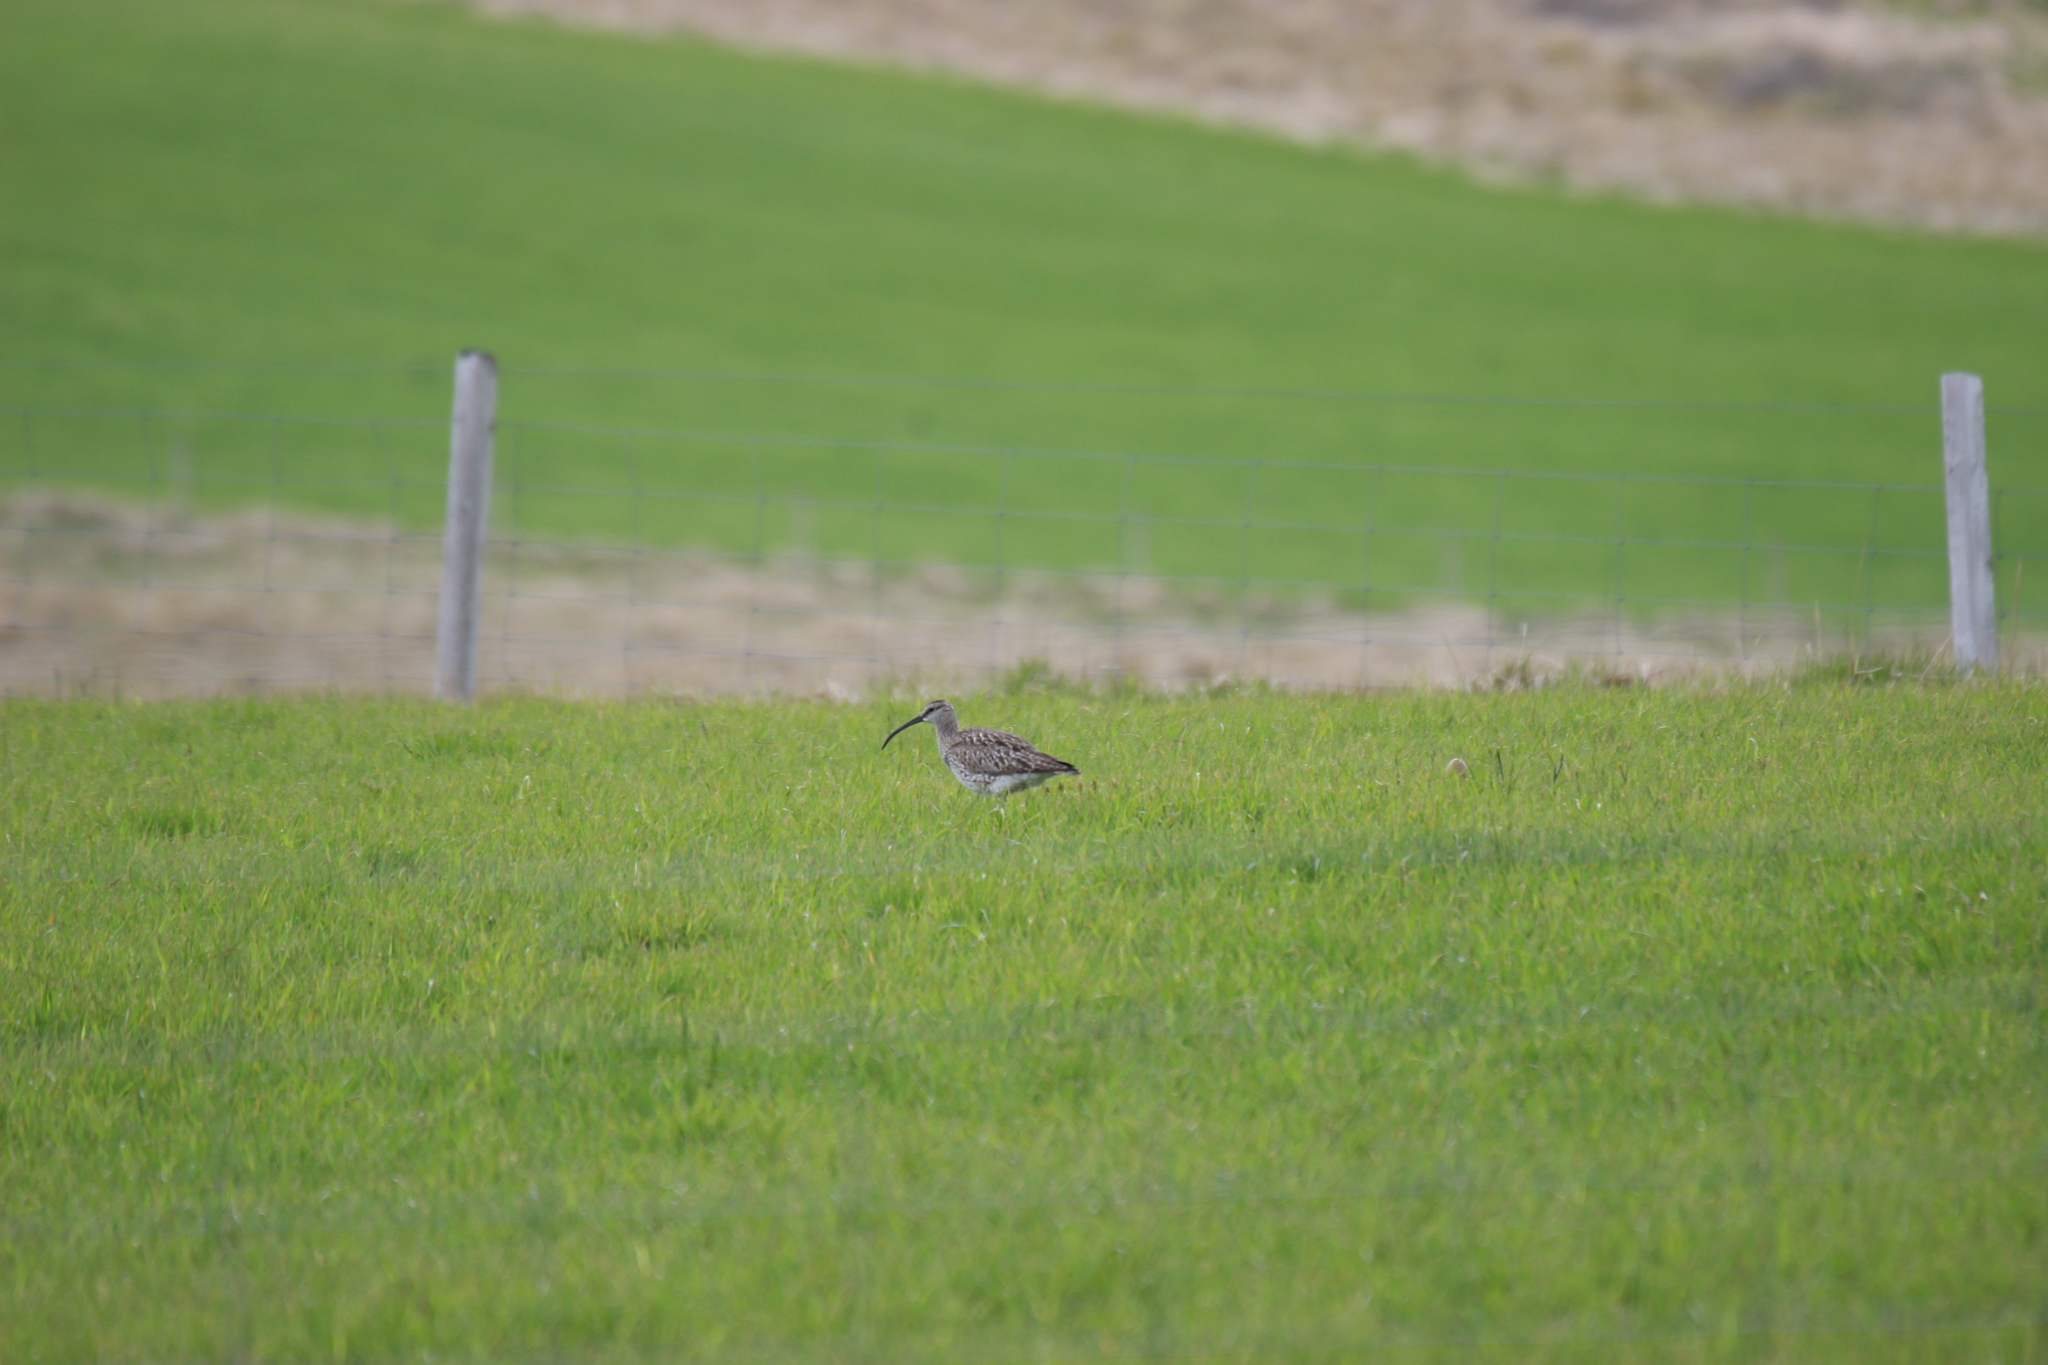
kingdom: Animalia
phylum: Chordata
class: Aves
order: Charadriiformes
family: Scolopacidae
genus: Numenius
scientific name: Numenius phaeopus
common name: Whimbrel
